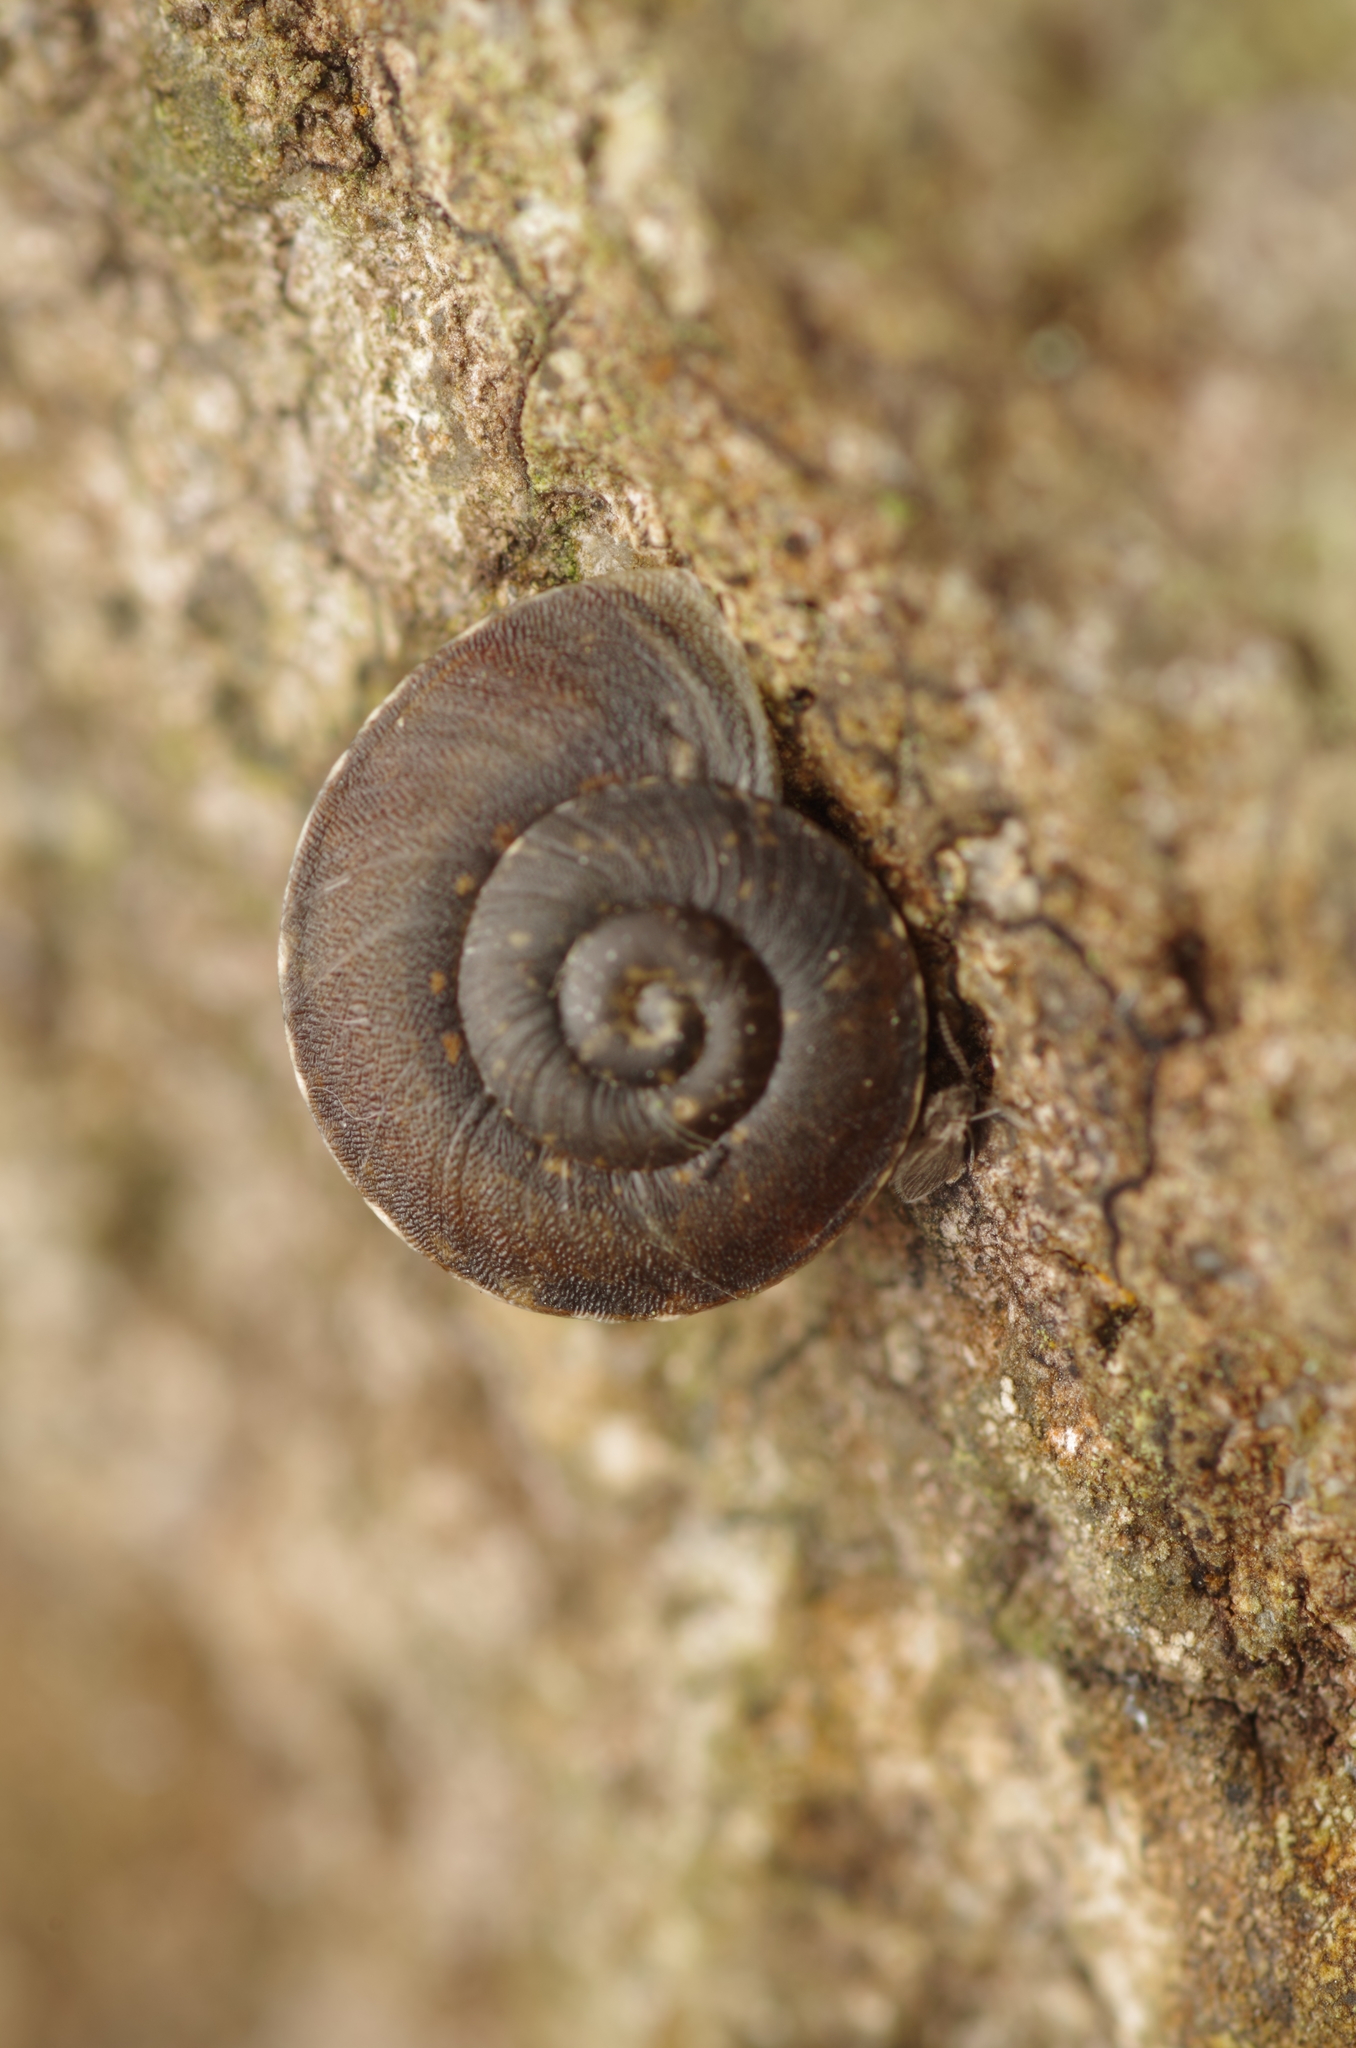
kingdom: Animalia
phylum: Mollusca
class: Gastropoda
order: Stylommatophora
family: Helicidae
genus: Helicigona
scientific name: Helicigona lapicida
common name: Lapidary snail
